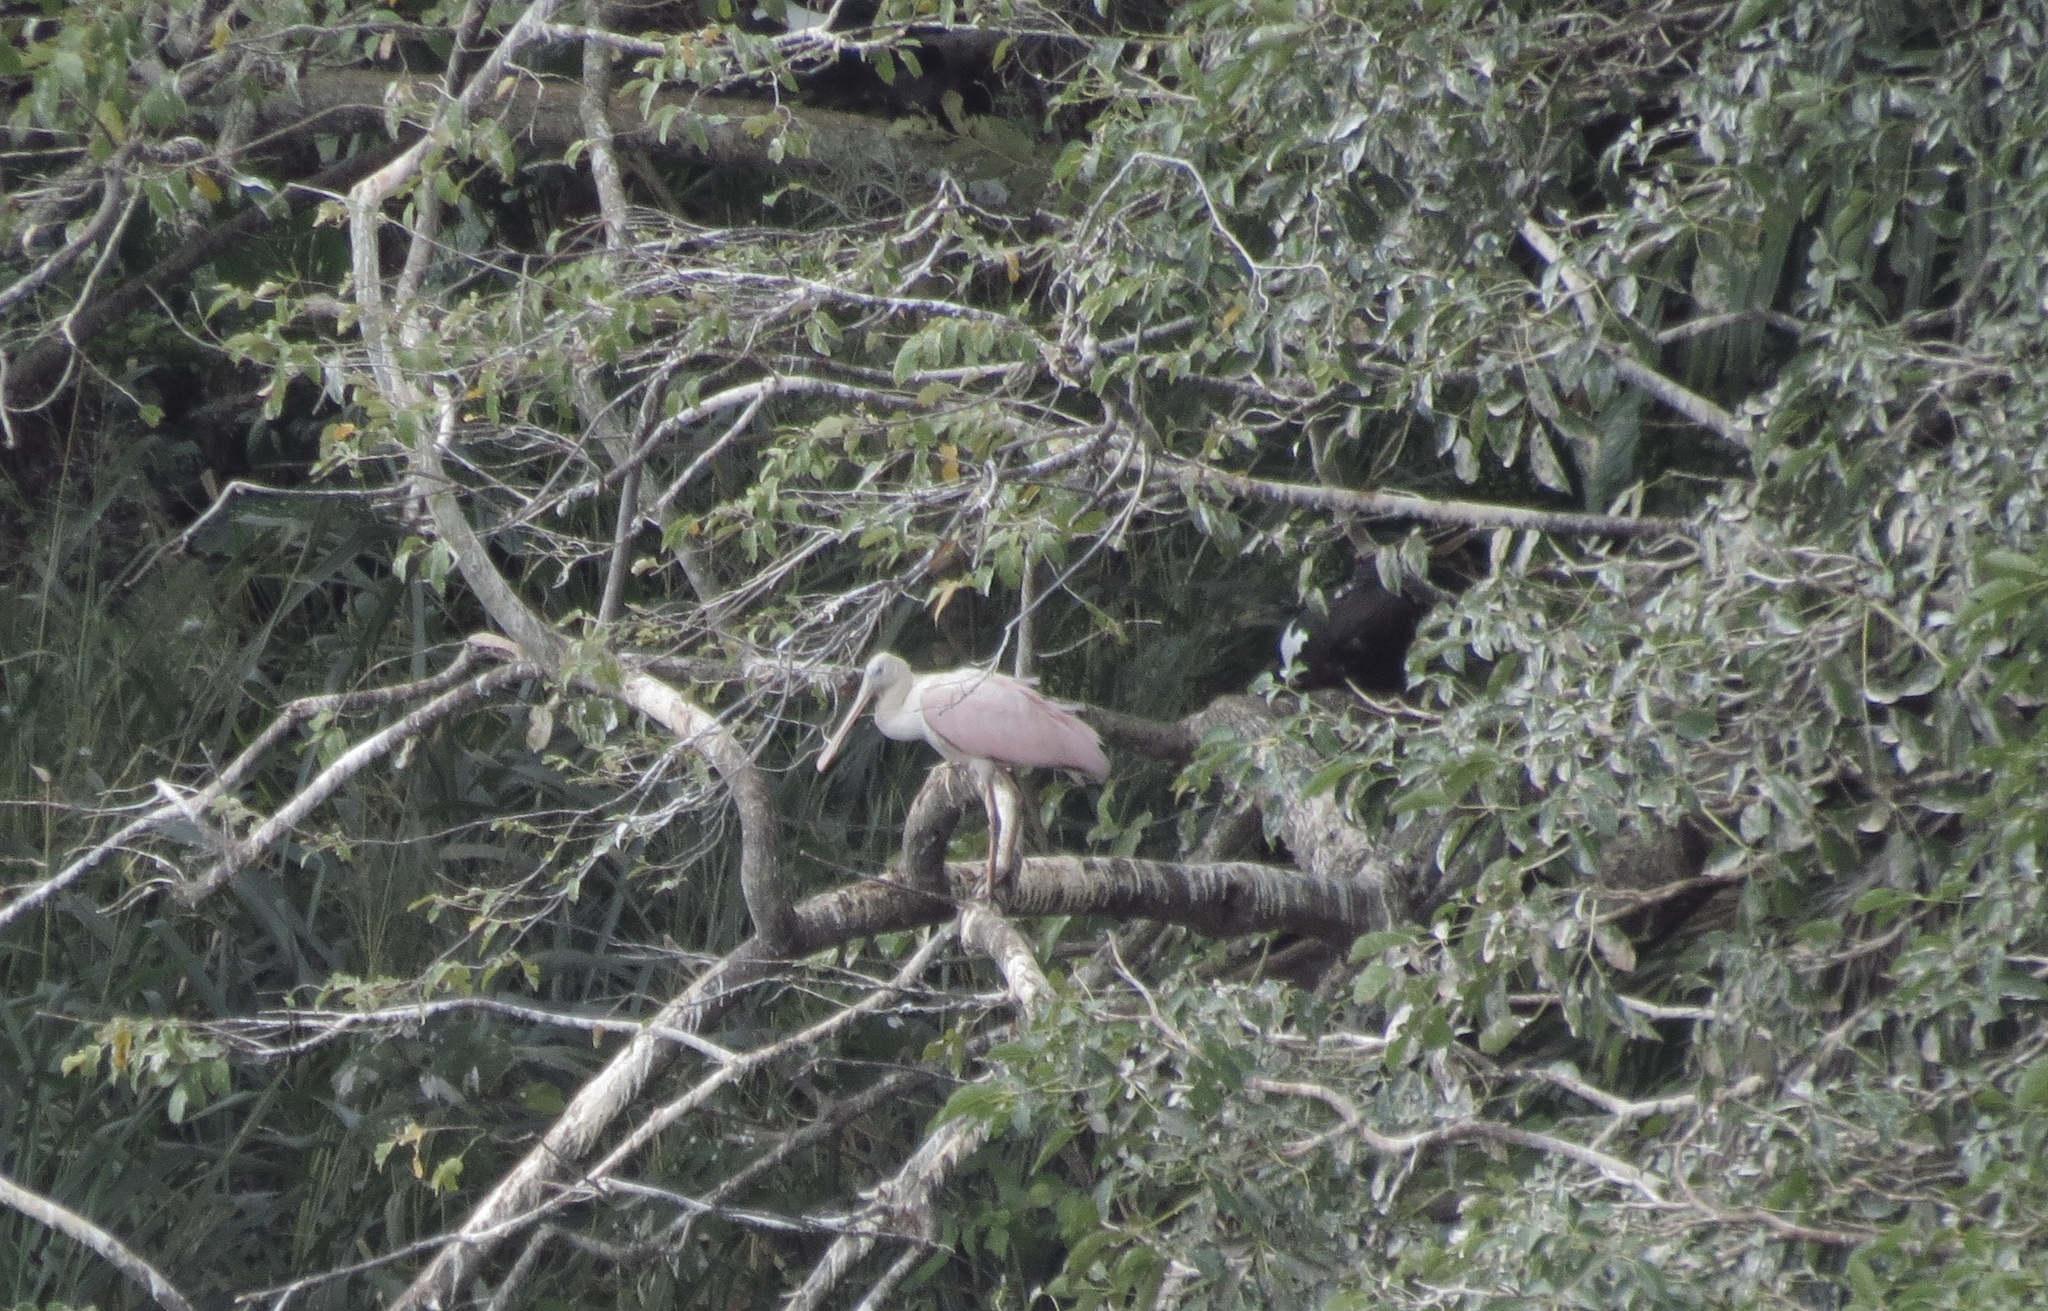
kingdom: Animalia
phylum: Chordata
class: Aves
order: Pelecaniformes
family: Threskiornithidae
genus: Platalea
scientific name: Platalea ajaja
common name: Roseate spoonbill
